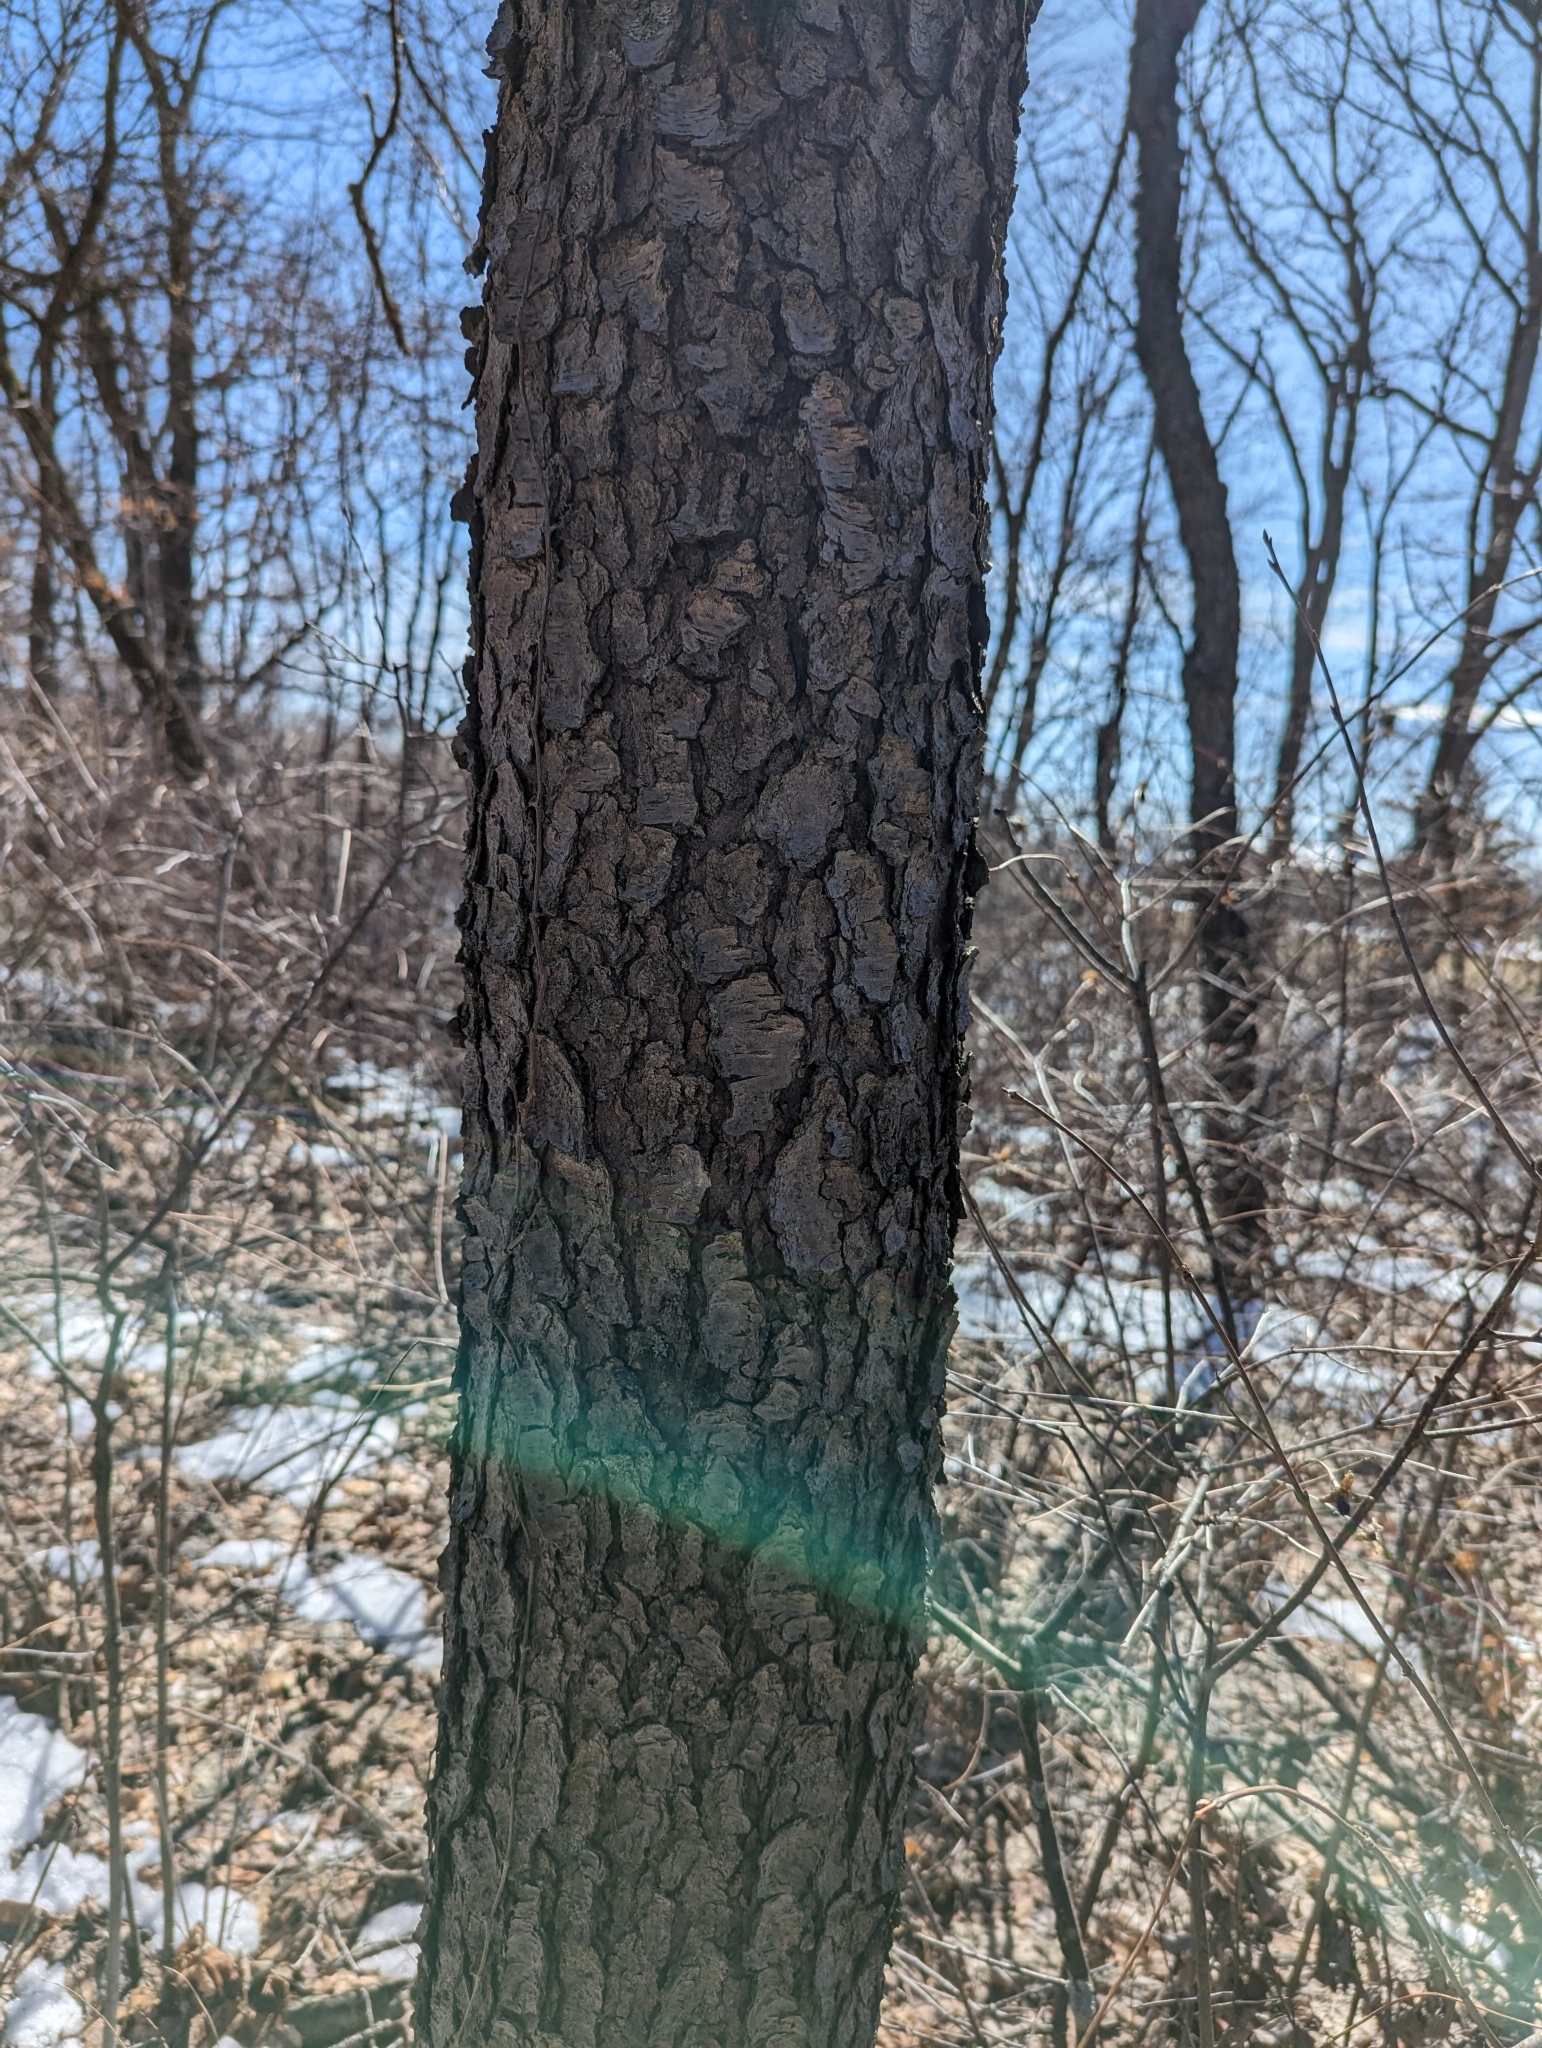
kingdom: Plantae
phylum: Tracheophyta
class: Magnoliopsida
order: Rosales
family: Rosaceae
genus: Prunus
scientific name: Prunus serotina
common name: Black cherry
